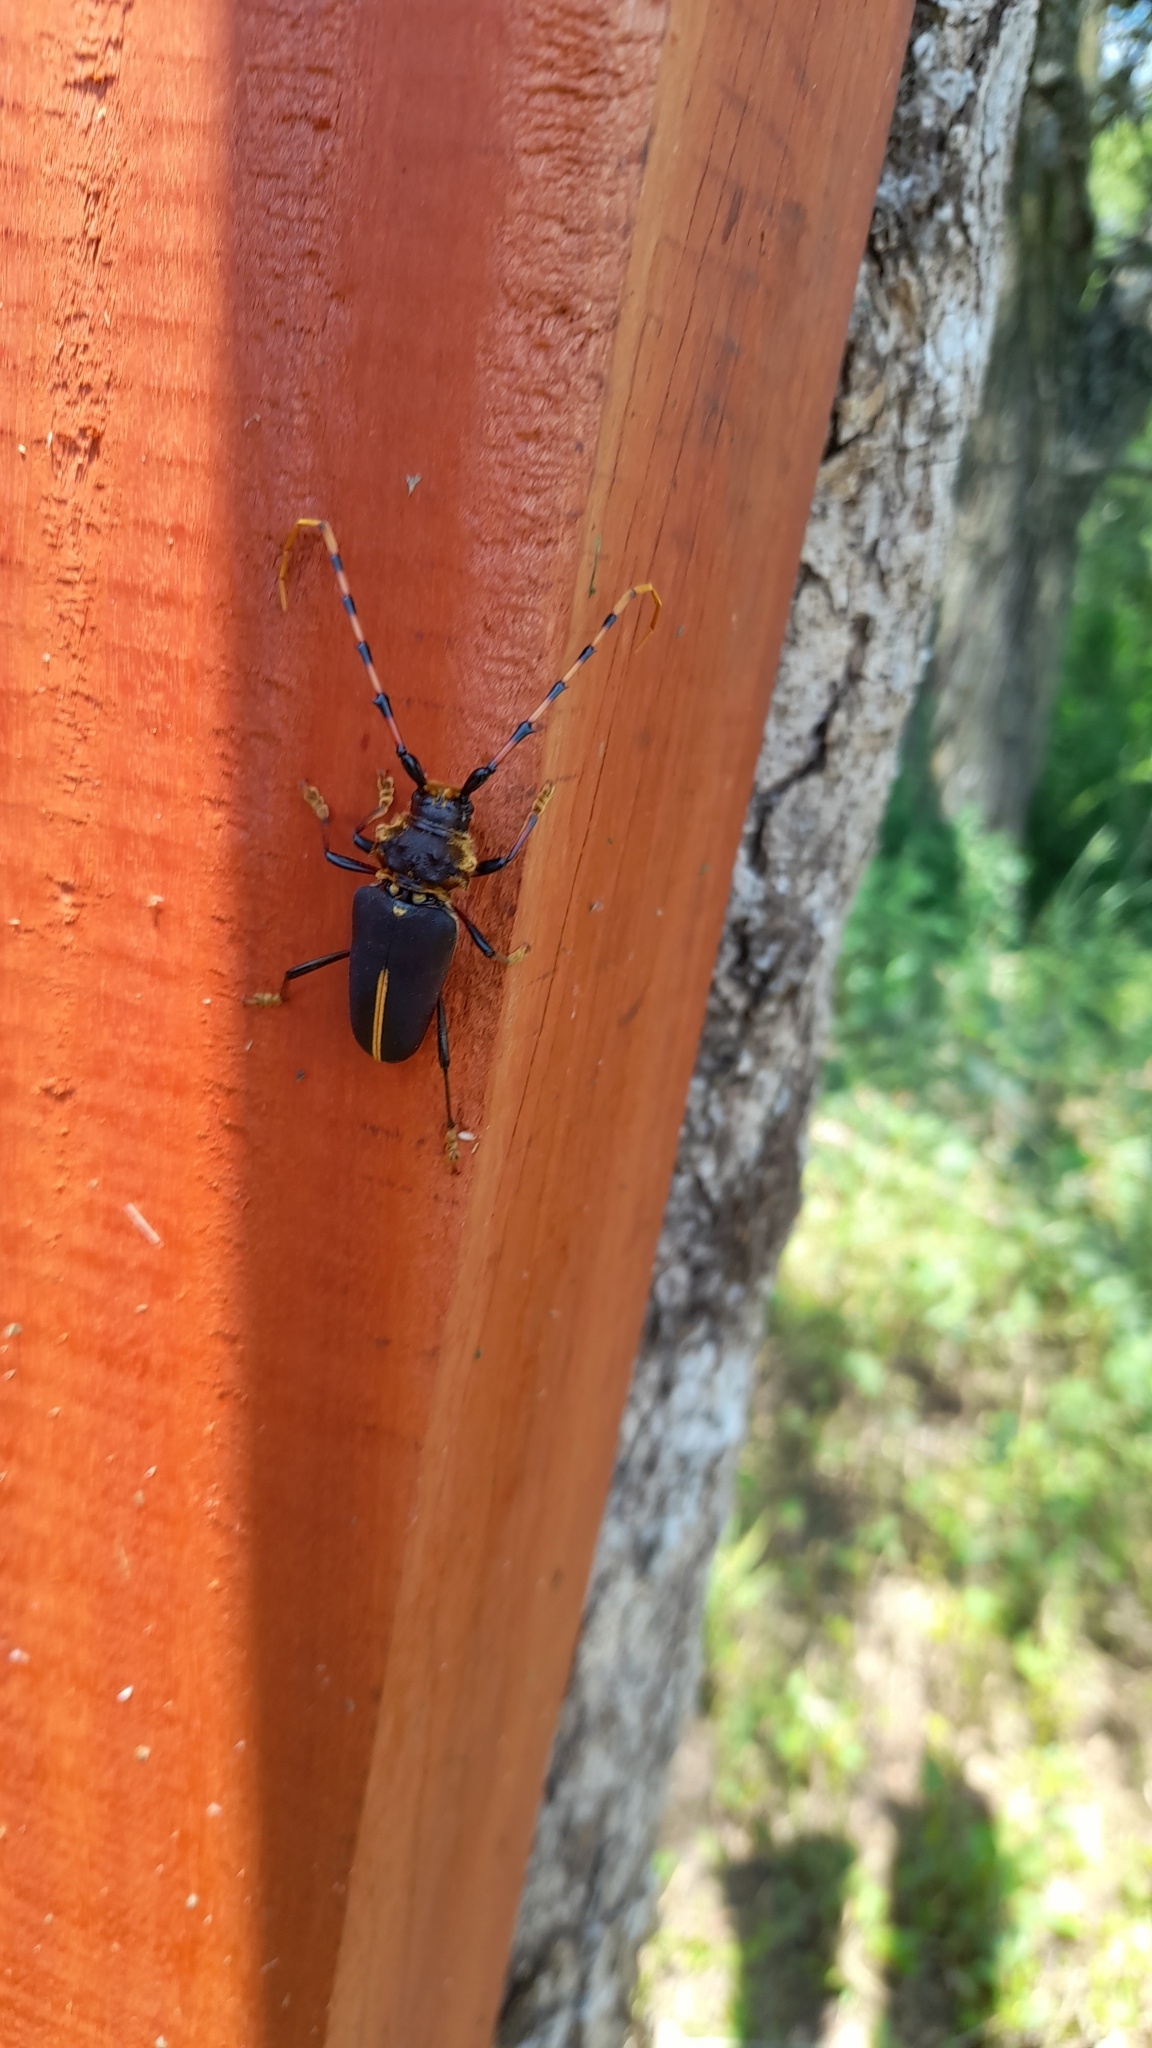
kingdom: Animalia
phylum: Arthropoda
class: Insecta
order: Coleoptera
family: Cerambycidae
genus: Dorcacerus
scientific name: Dorcacerus barbatus
